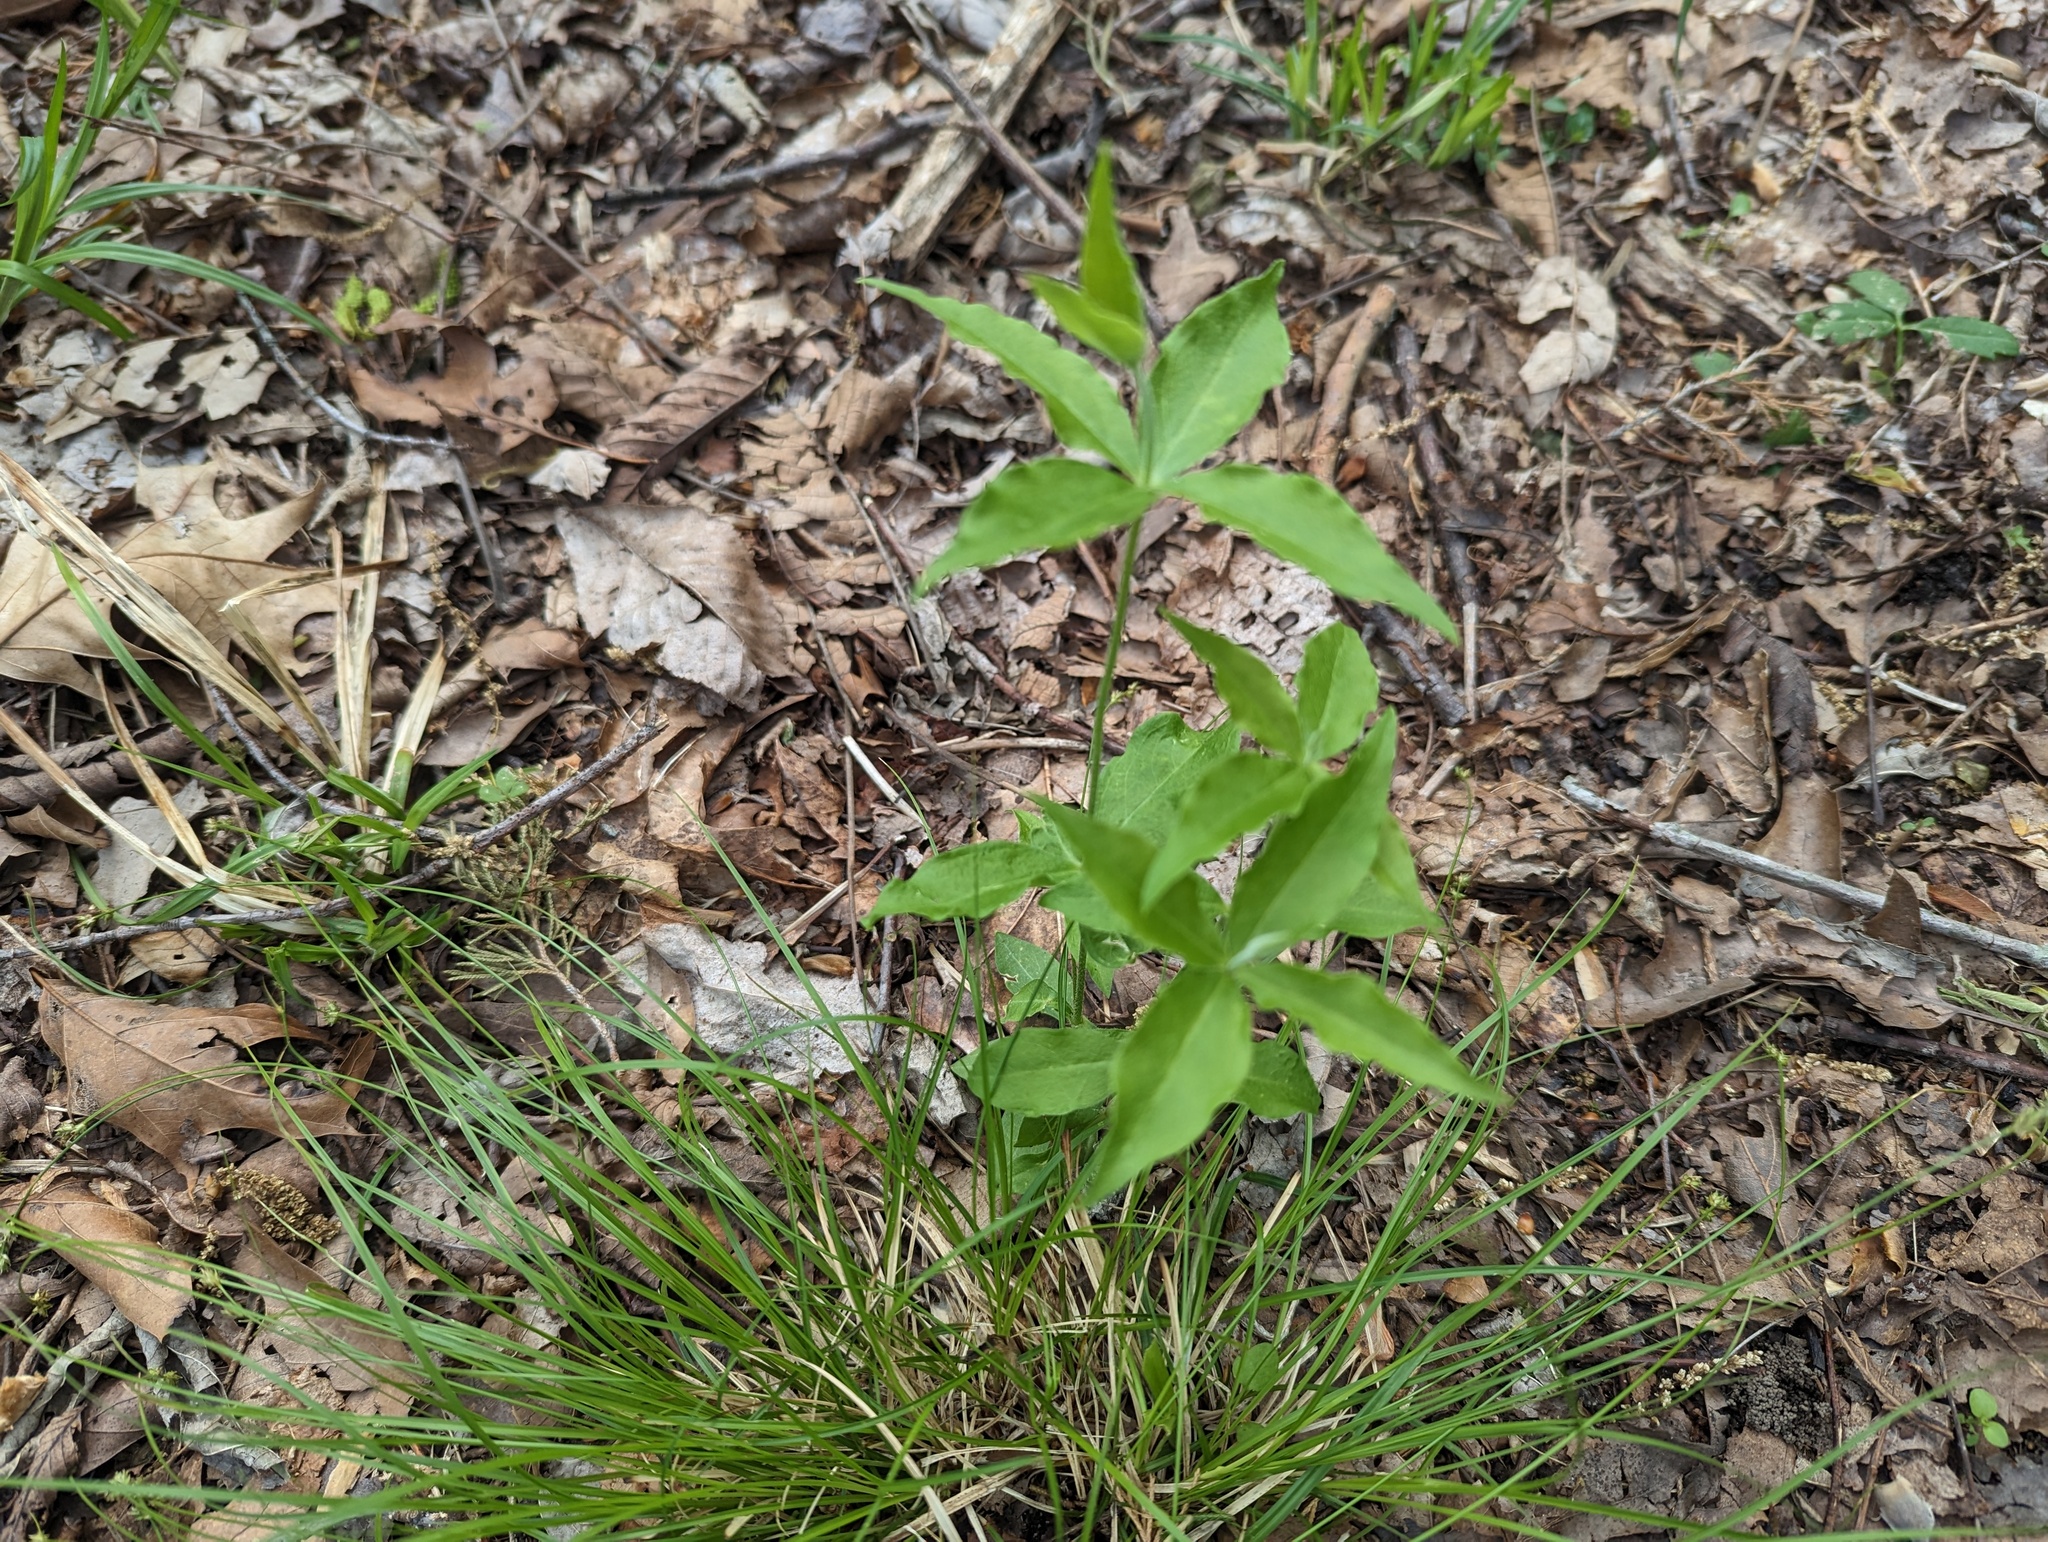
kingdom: Plantae
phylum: Tracheophyta
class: Magnoliopsida
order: Caryophyllales
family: Caryophyllaceae
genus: Silene
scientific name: Silene stellata
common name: Starry campion
